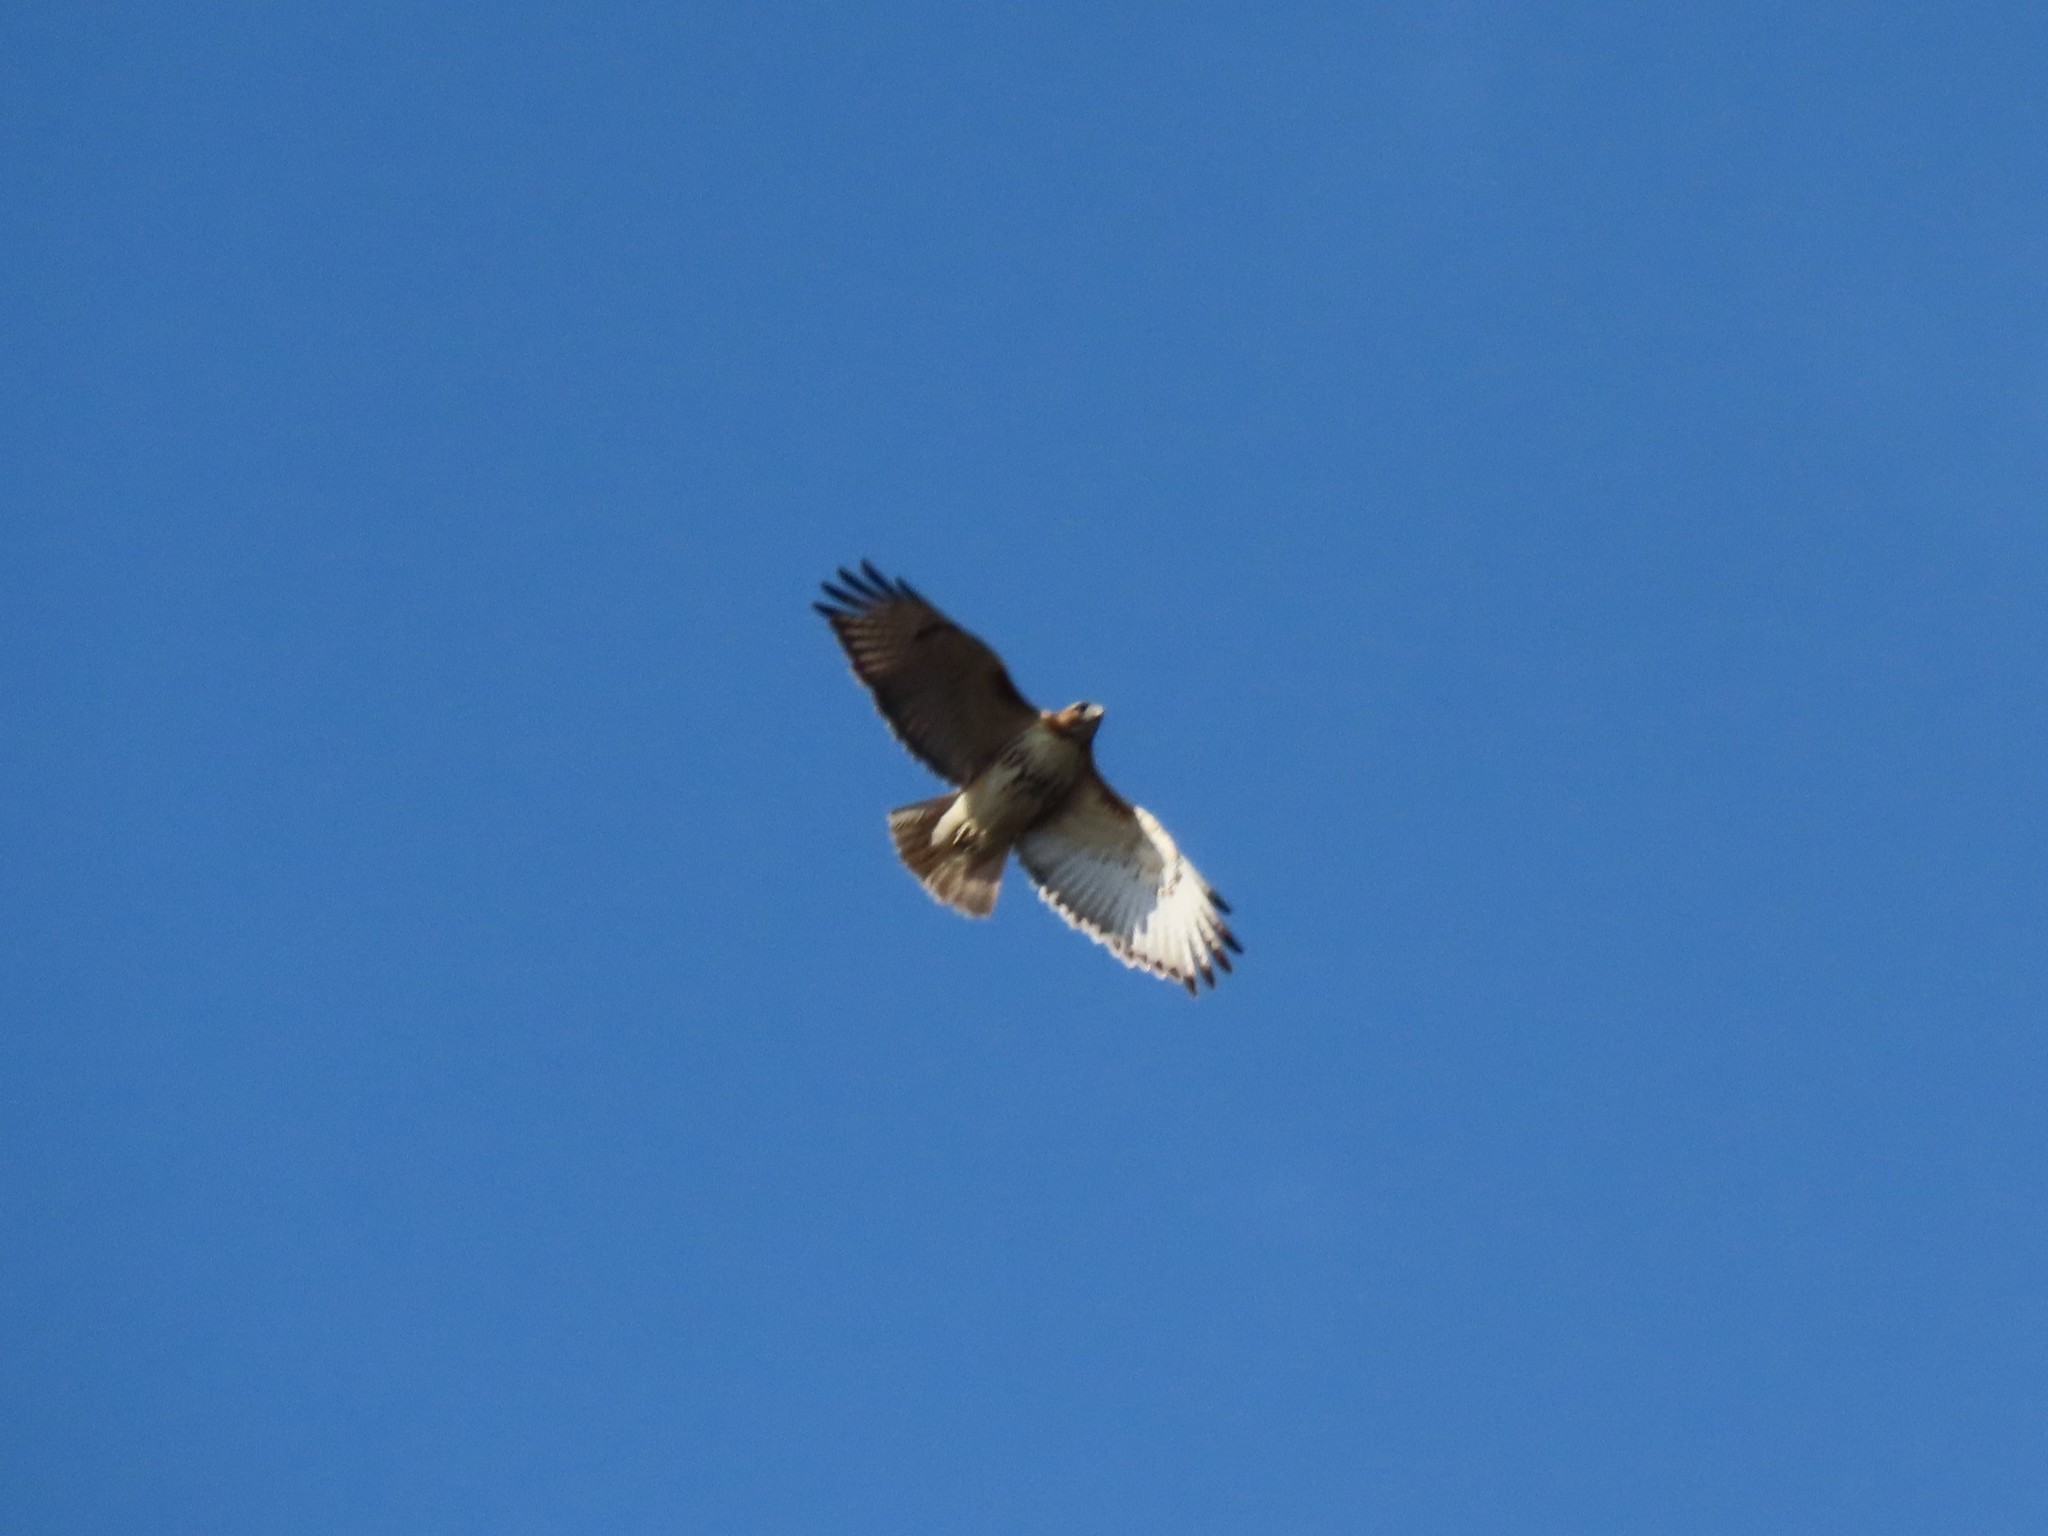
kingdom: Animalia
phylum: Chordata
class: Aves
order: Accipitriformes
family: Accipitridae
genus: Buteo
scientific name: Buteo jamaicensis
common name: Red-tailed hawk
